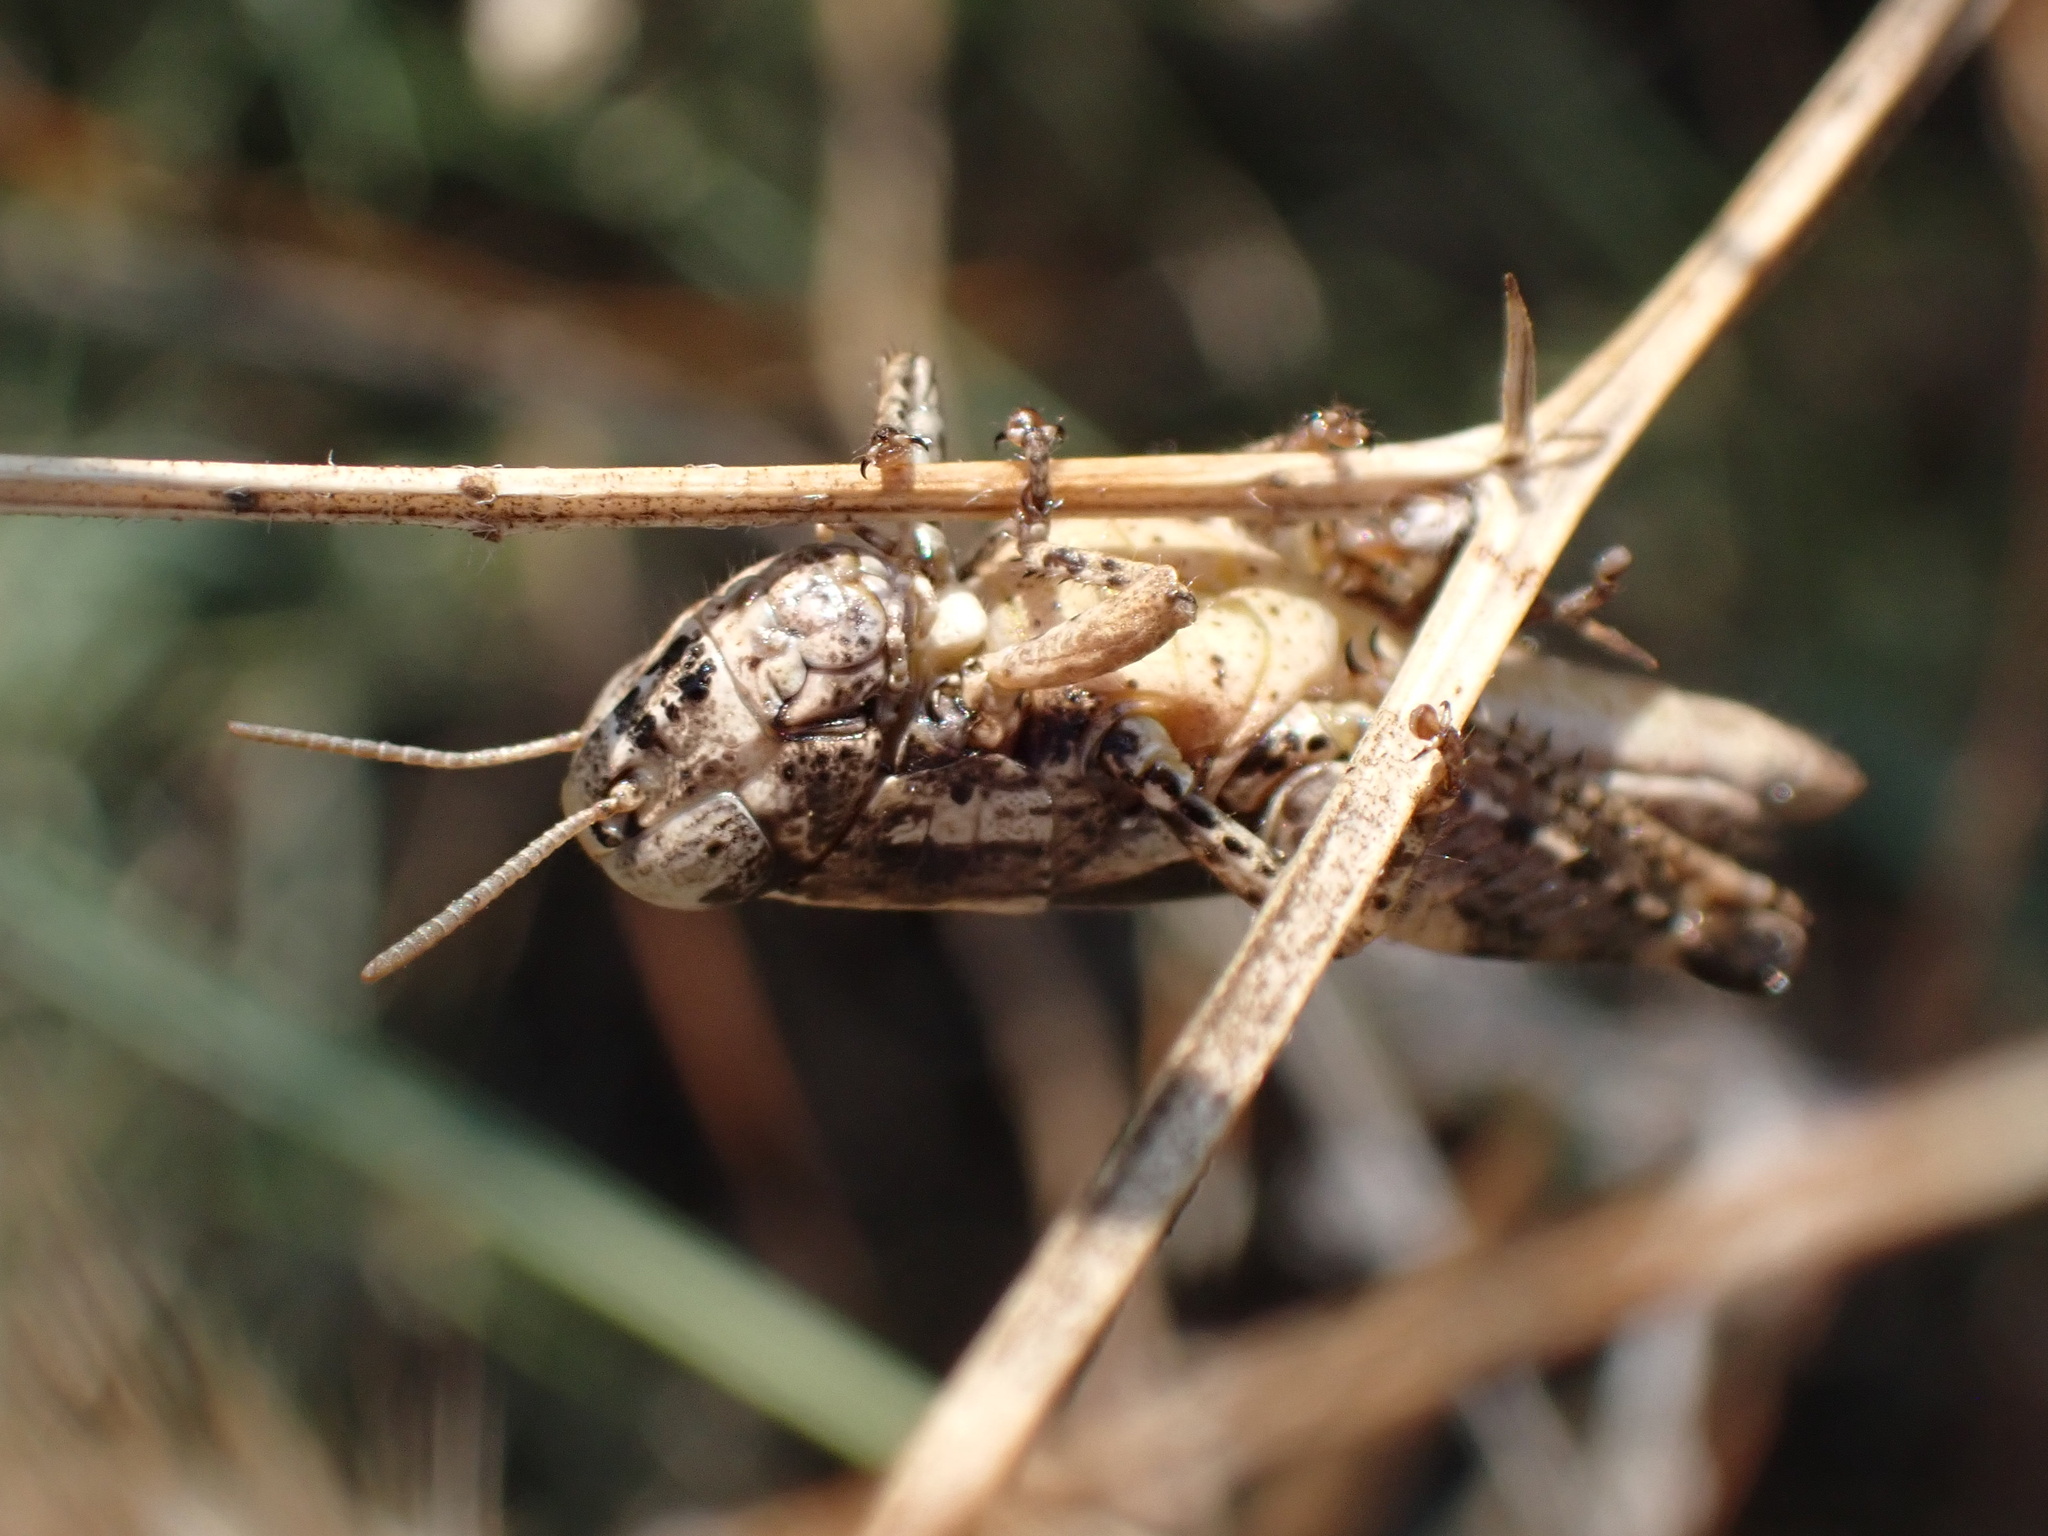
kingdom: Animalia
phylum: Arthropoda
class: Insecta
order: Orthoptera
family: Acrididae
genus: Pezotettix
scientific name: Pezotettix giornae
